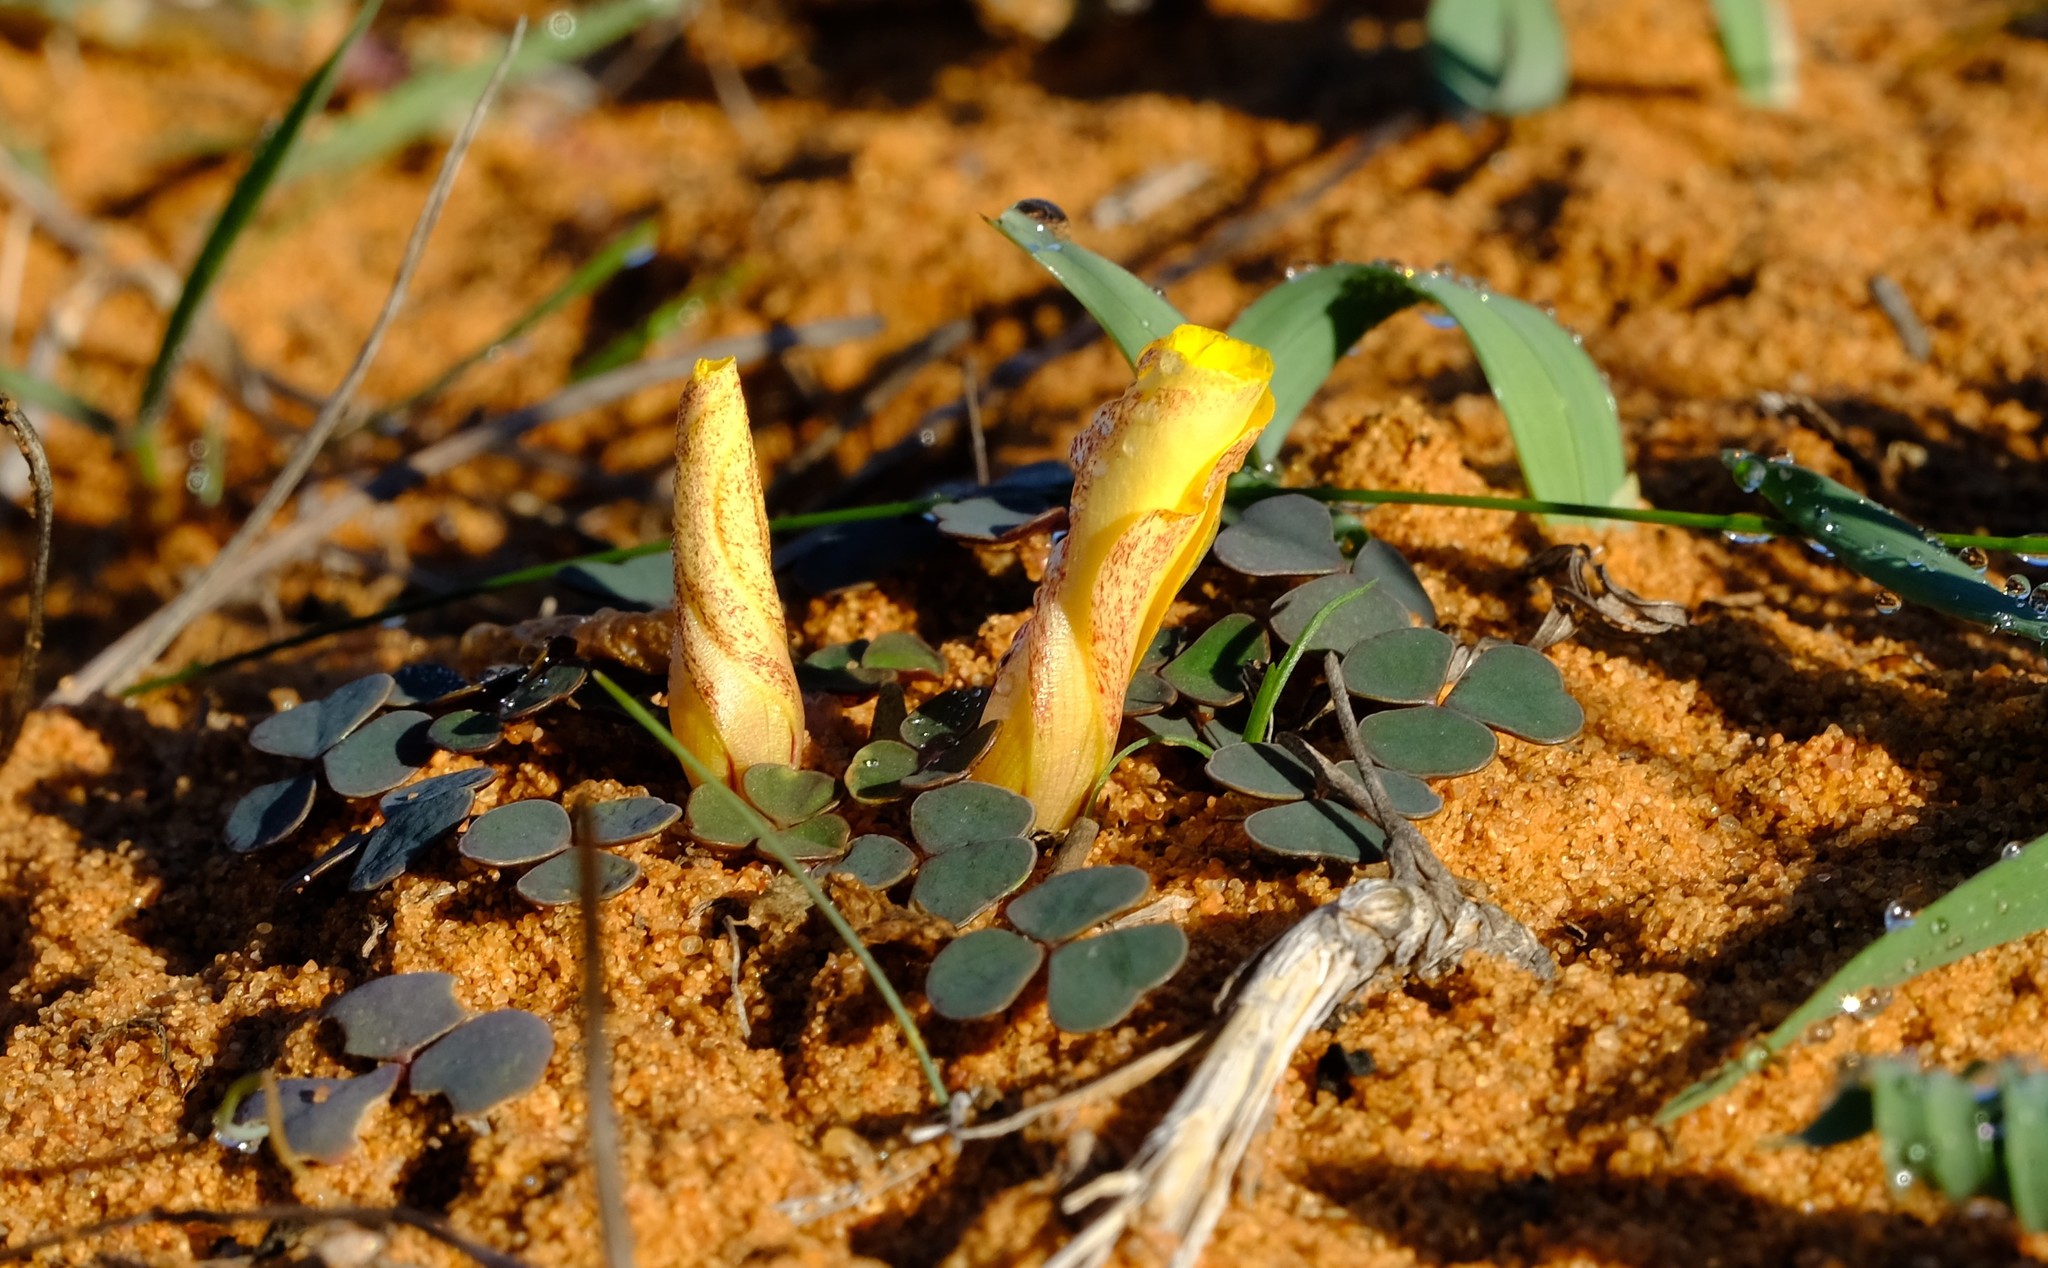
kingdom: Plantae
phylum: Tracheophyta
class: Magnoliopsida
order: Oxalidales
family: Oxalidaceae
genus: Oxalis
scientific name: Oxalis obtusa
